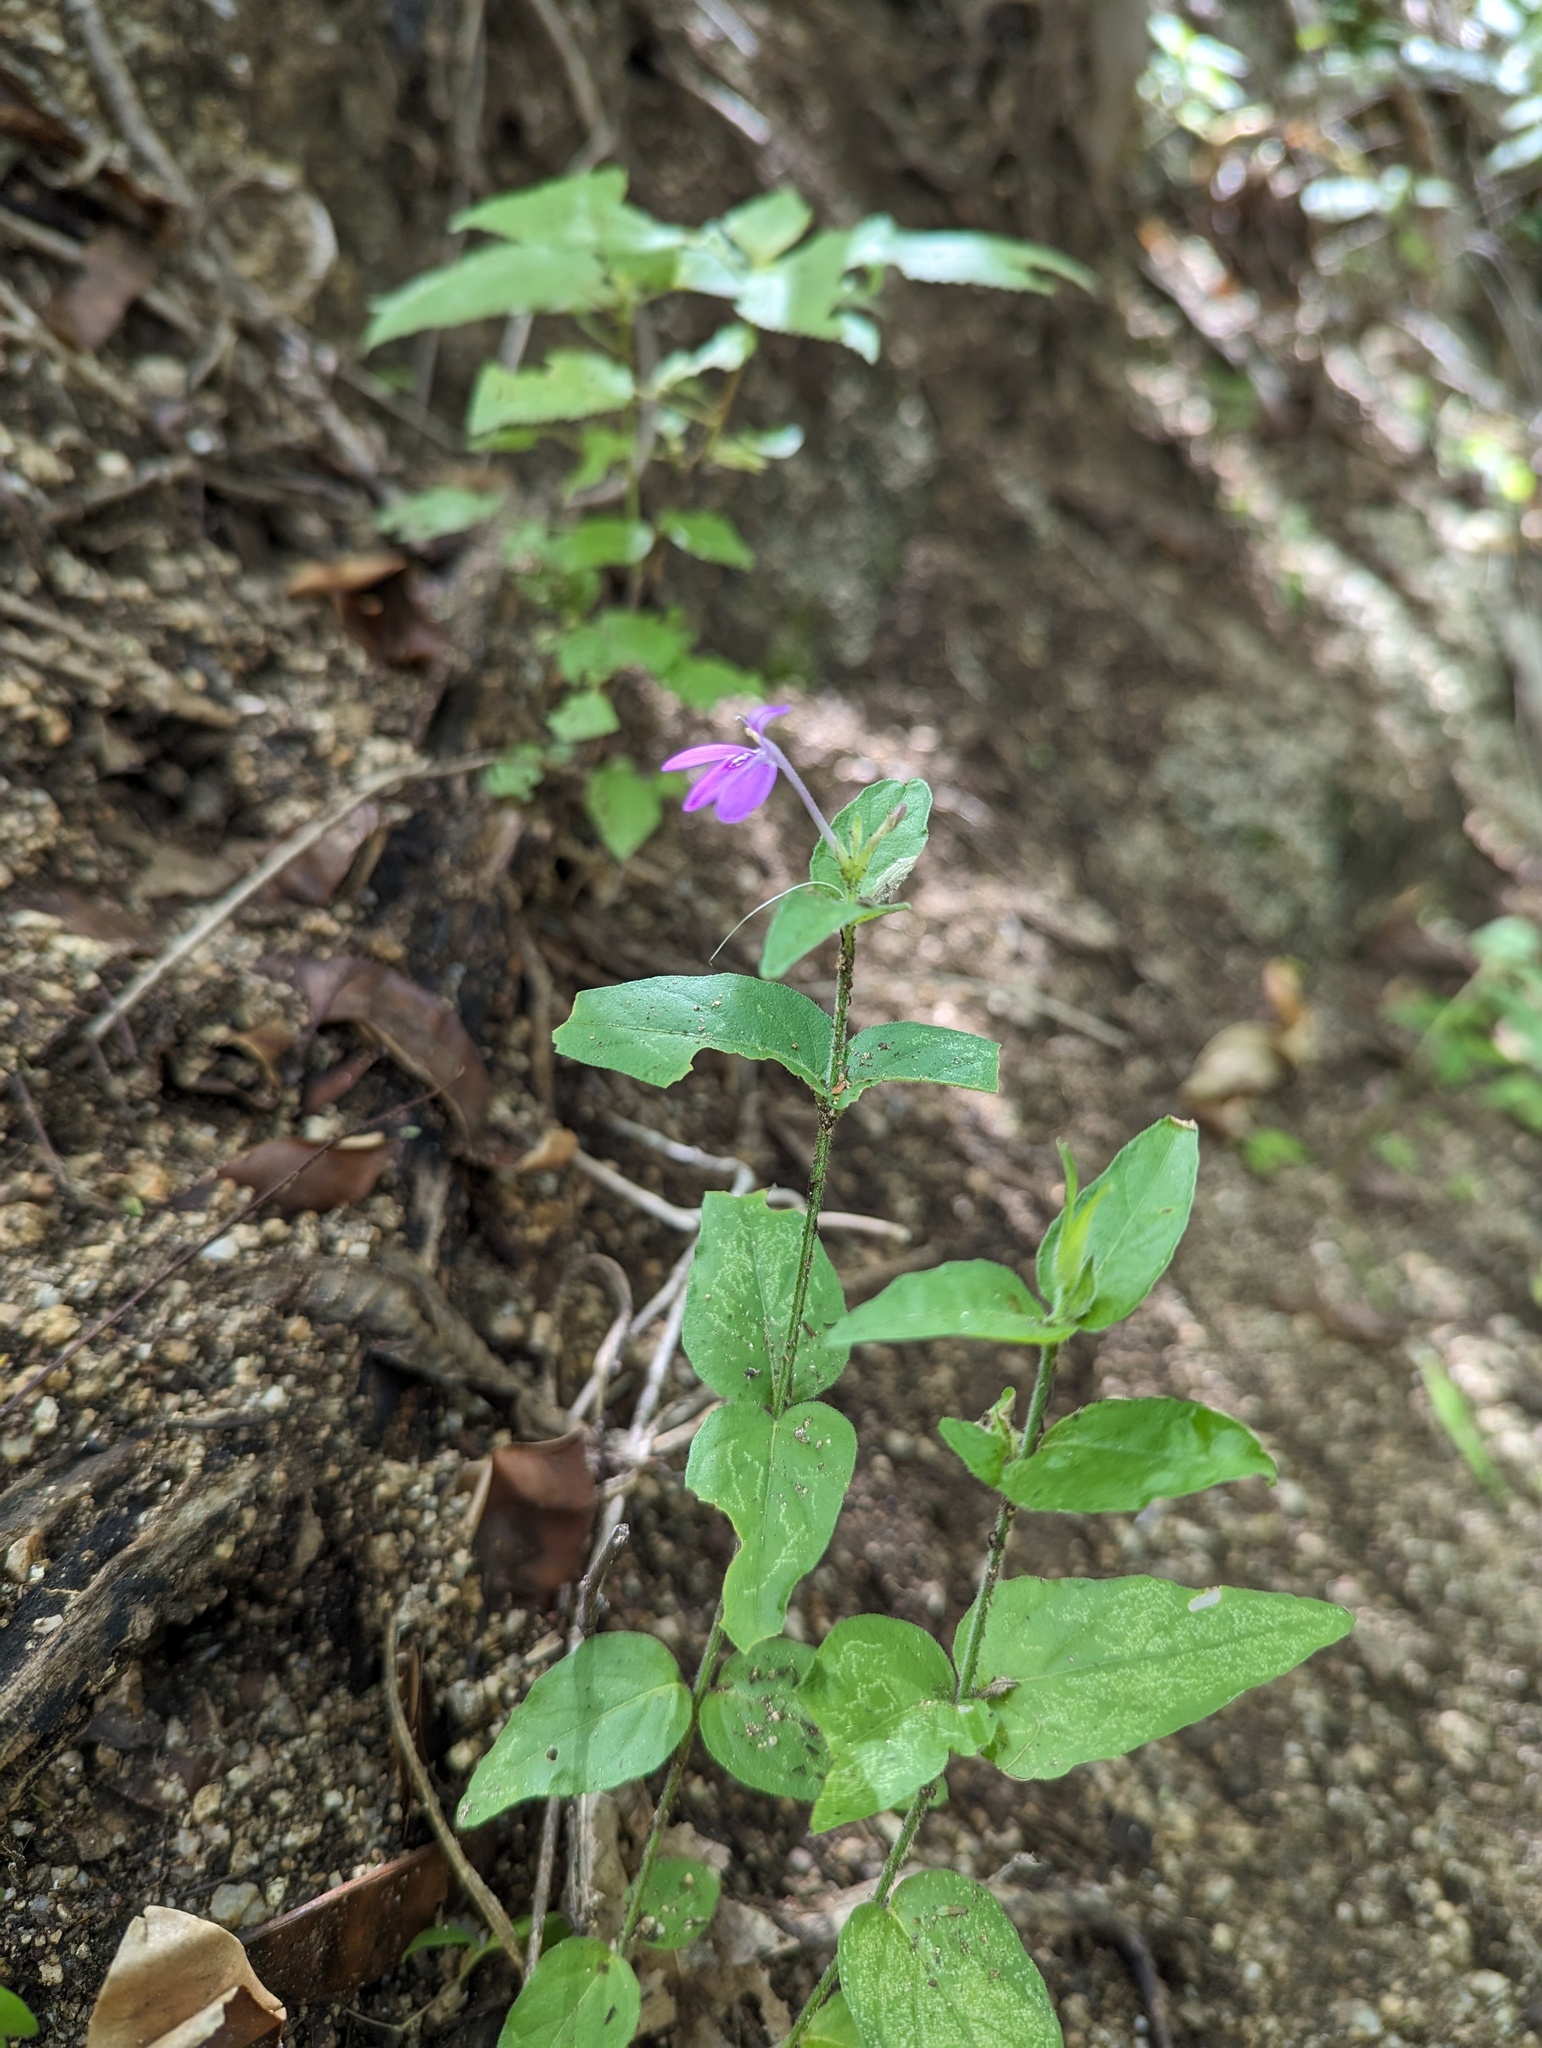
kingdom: Plantae
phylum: Tracheophyta
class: Magnoliopsida
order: Lamiales
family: Acanthaceae
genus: Dianthera
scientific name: Dianthera incerta
